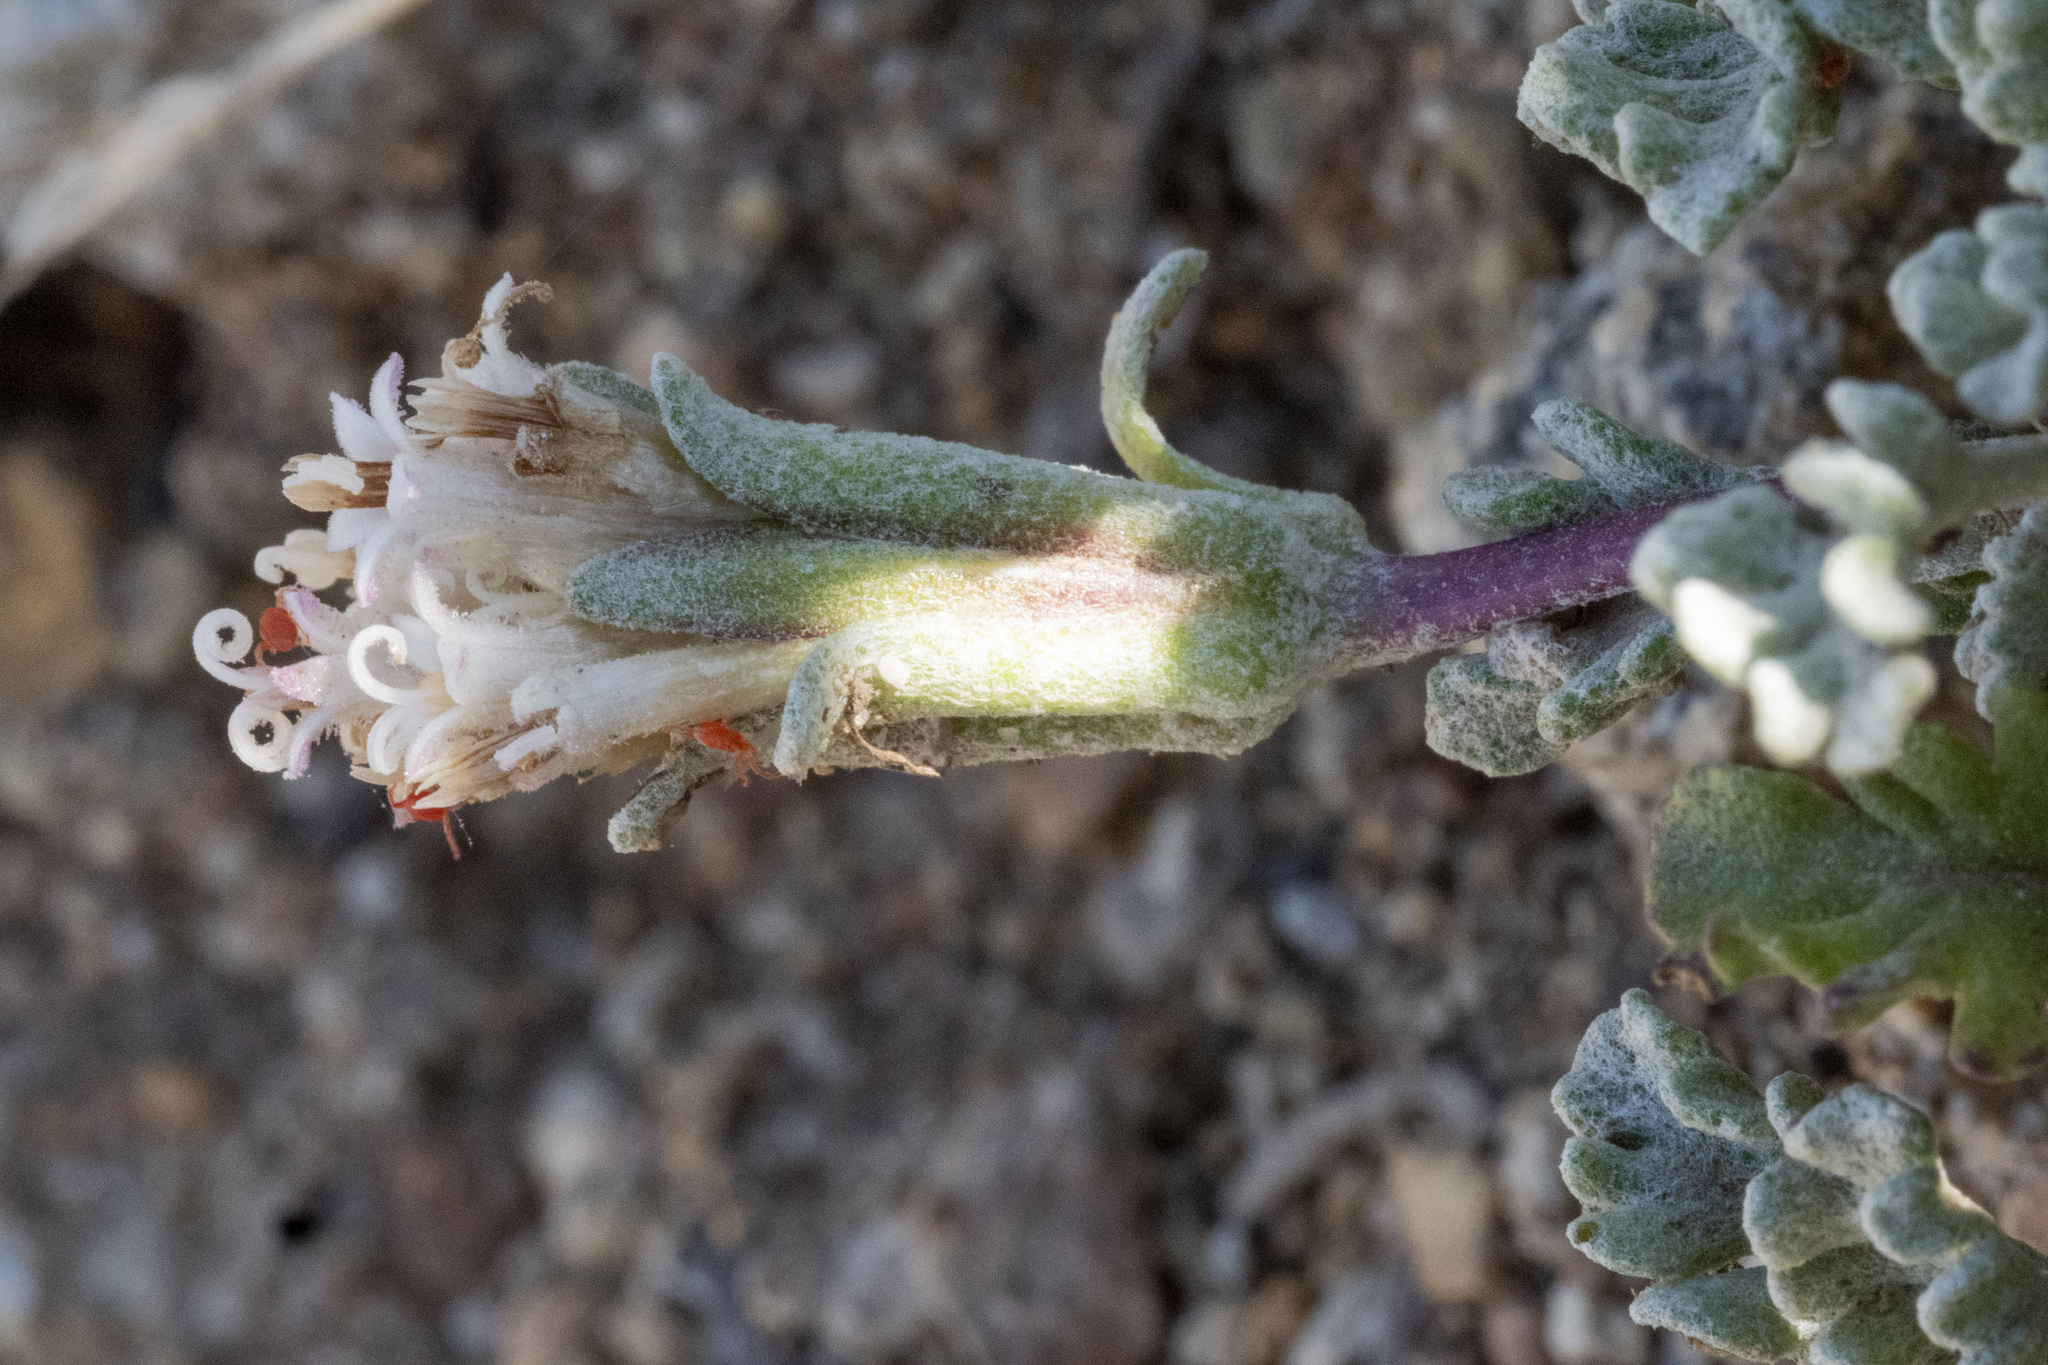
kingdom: Plantae
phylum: Tracheophyta
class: Magnoliopsida
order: Asterales
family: Asteraceae
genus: Chaenactis
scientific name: Chaenactis alpigena
